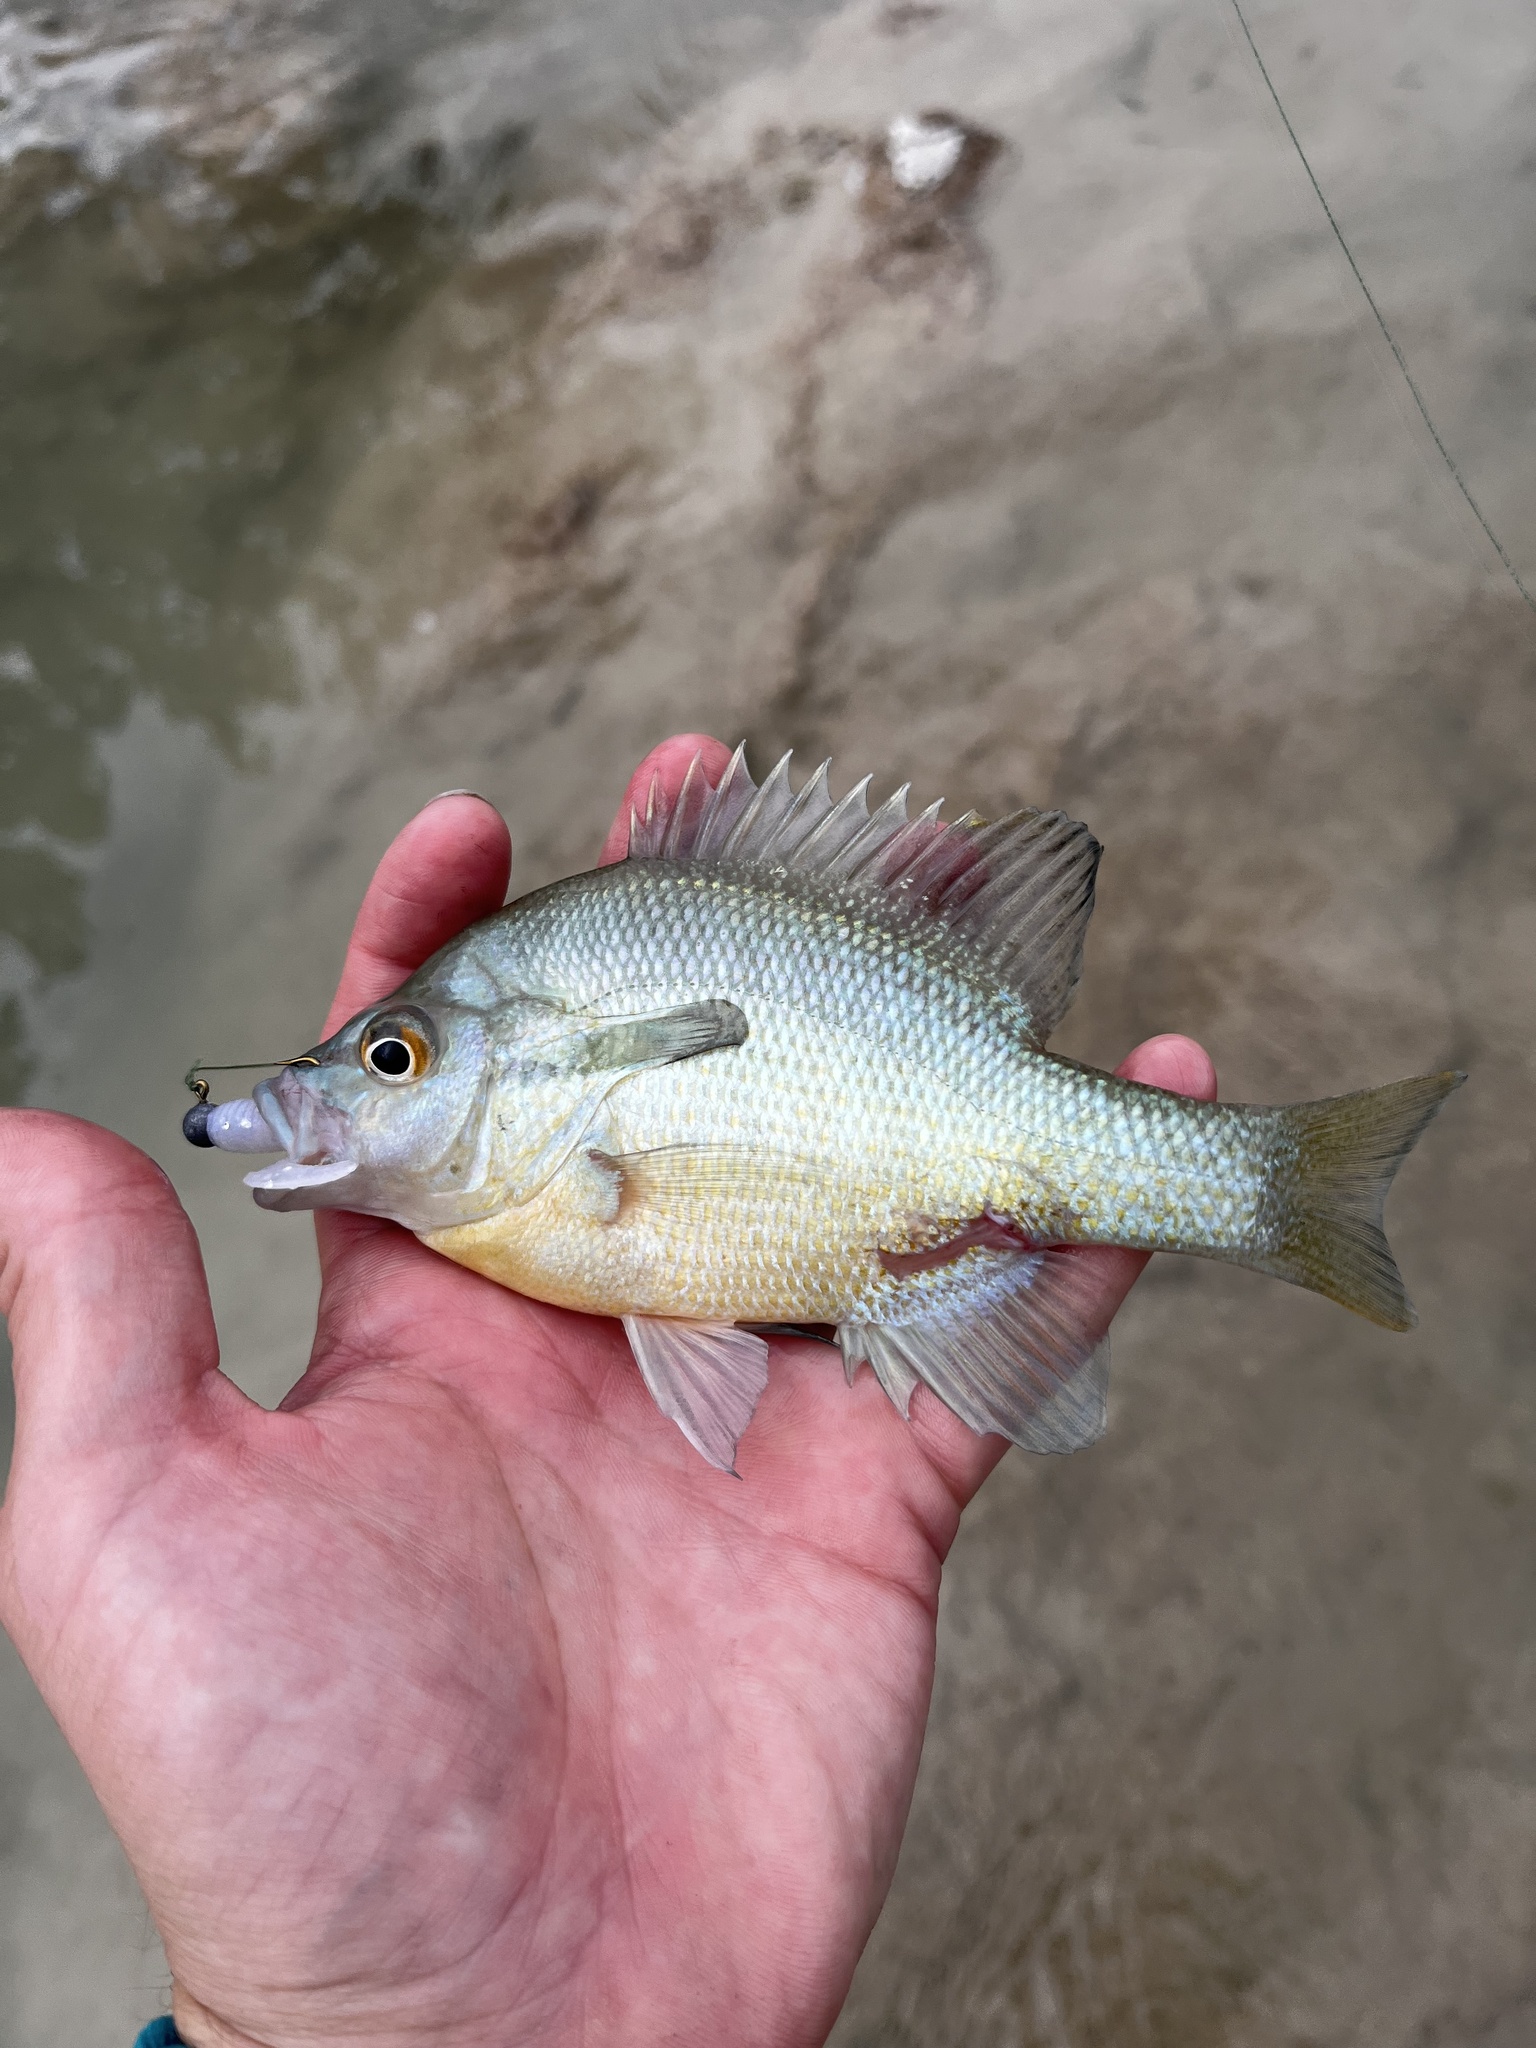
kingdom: Animalia
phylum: Chordata
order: Perciformes
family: Centrarchidae
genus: Lepomis
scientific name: Lepomis auritus
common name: Redbreast sunfish
